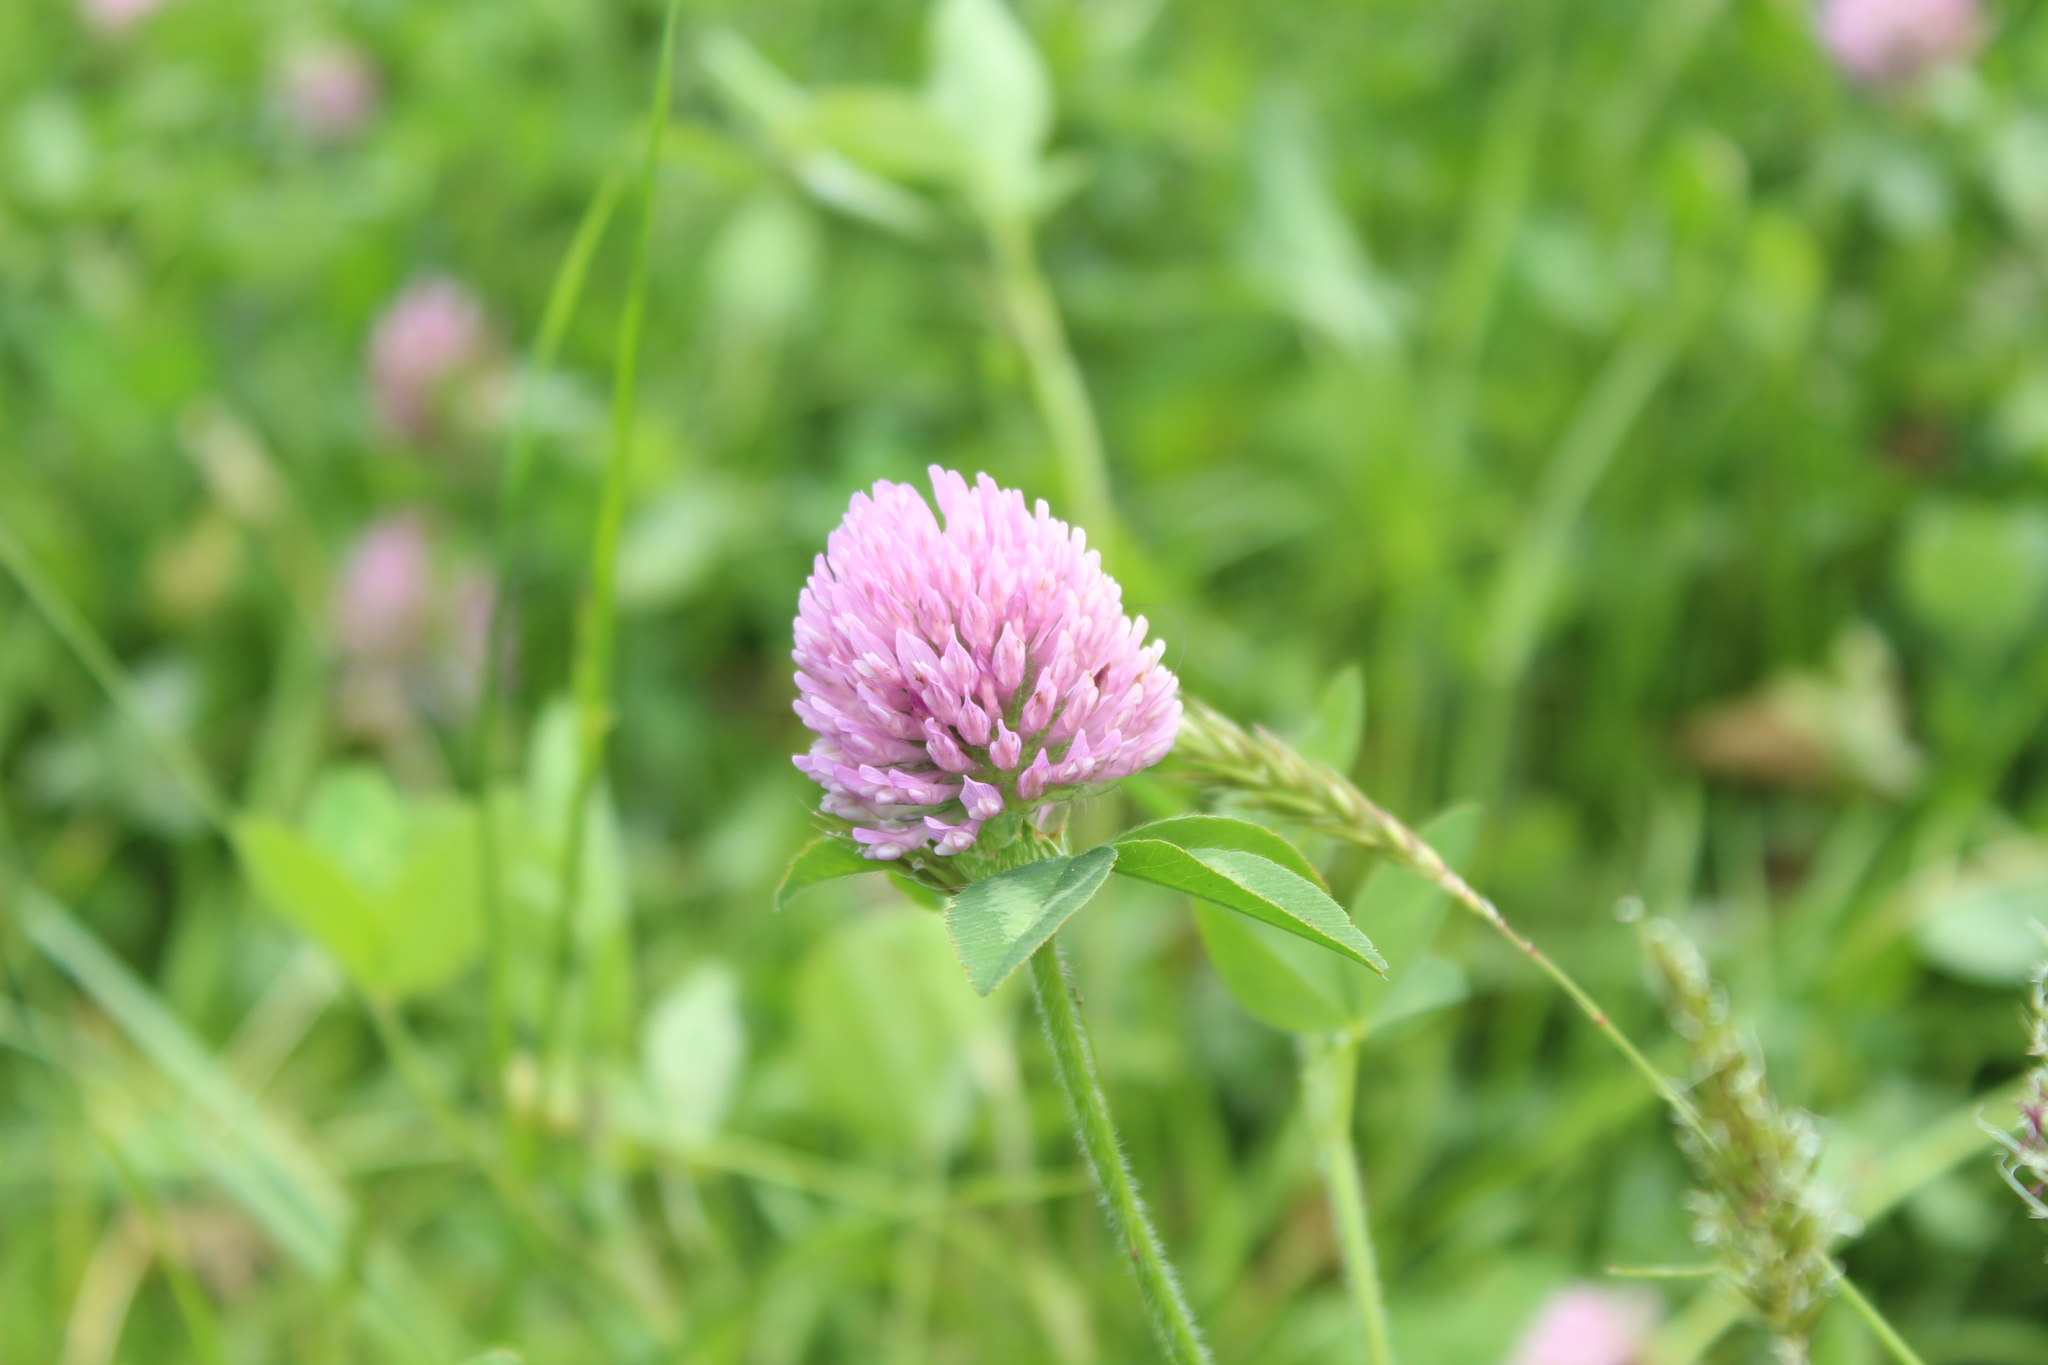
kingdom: Plantae
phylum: Tracheophyta
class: Magnoliopsida
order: Fabales
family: Fabaceae
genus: Trifolium
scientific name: Trifolium pratense
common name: Red clover
